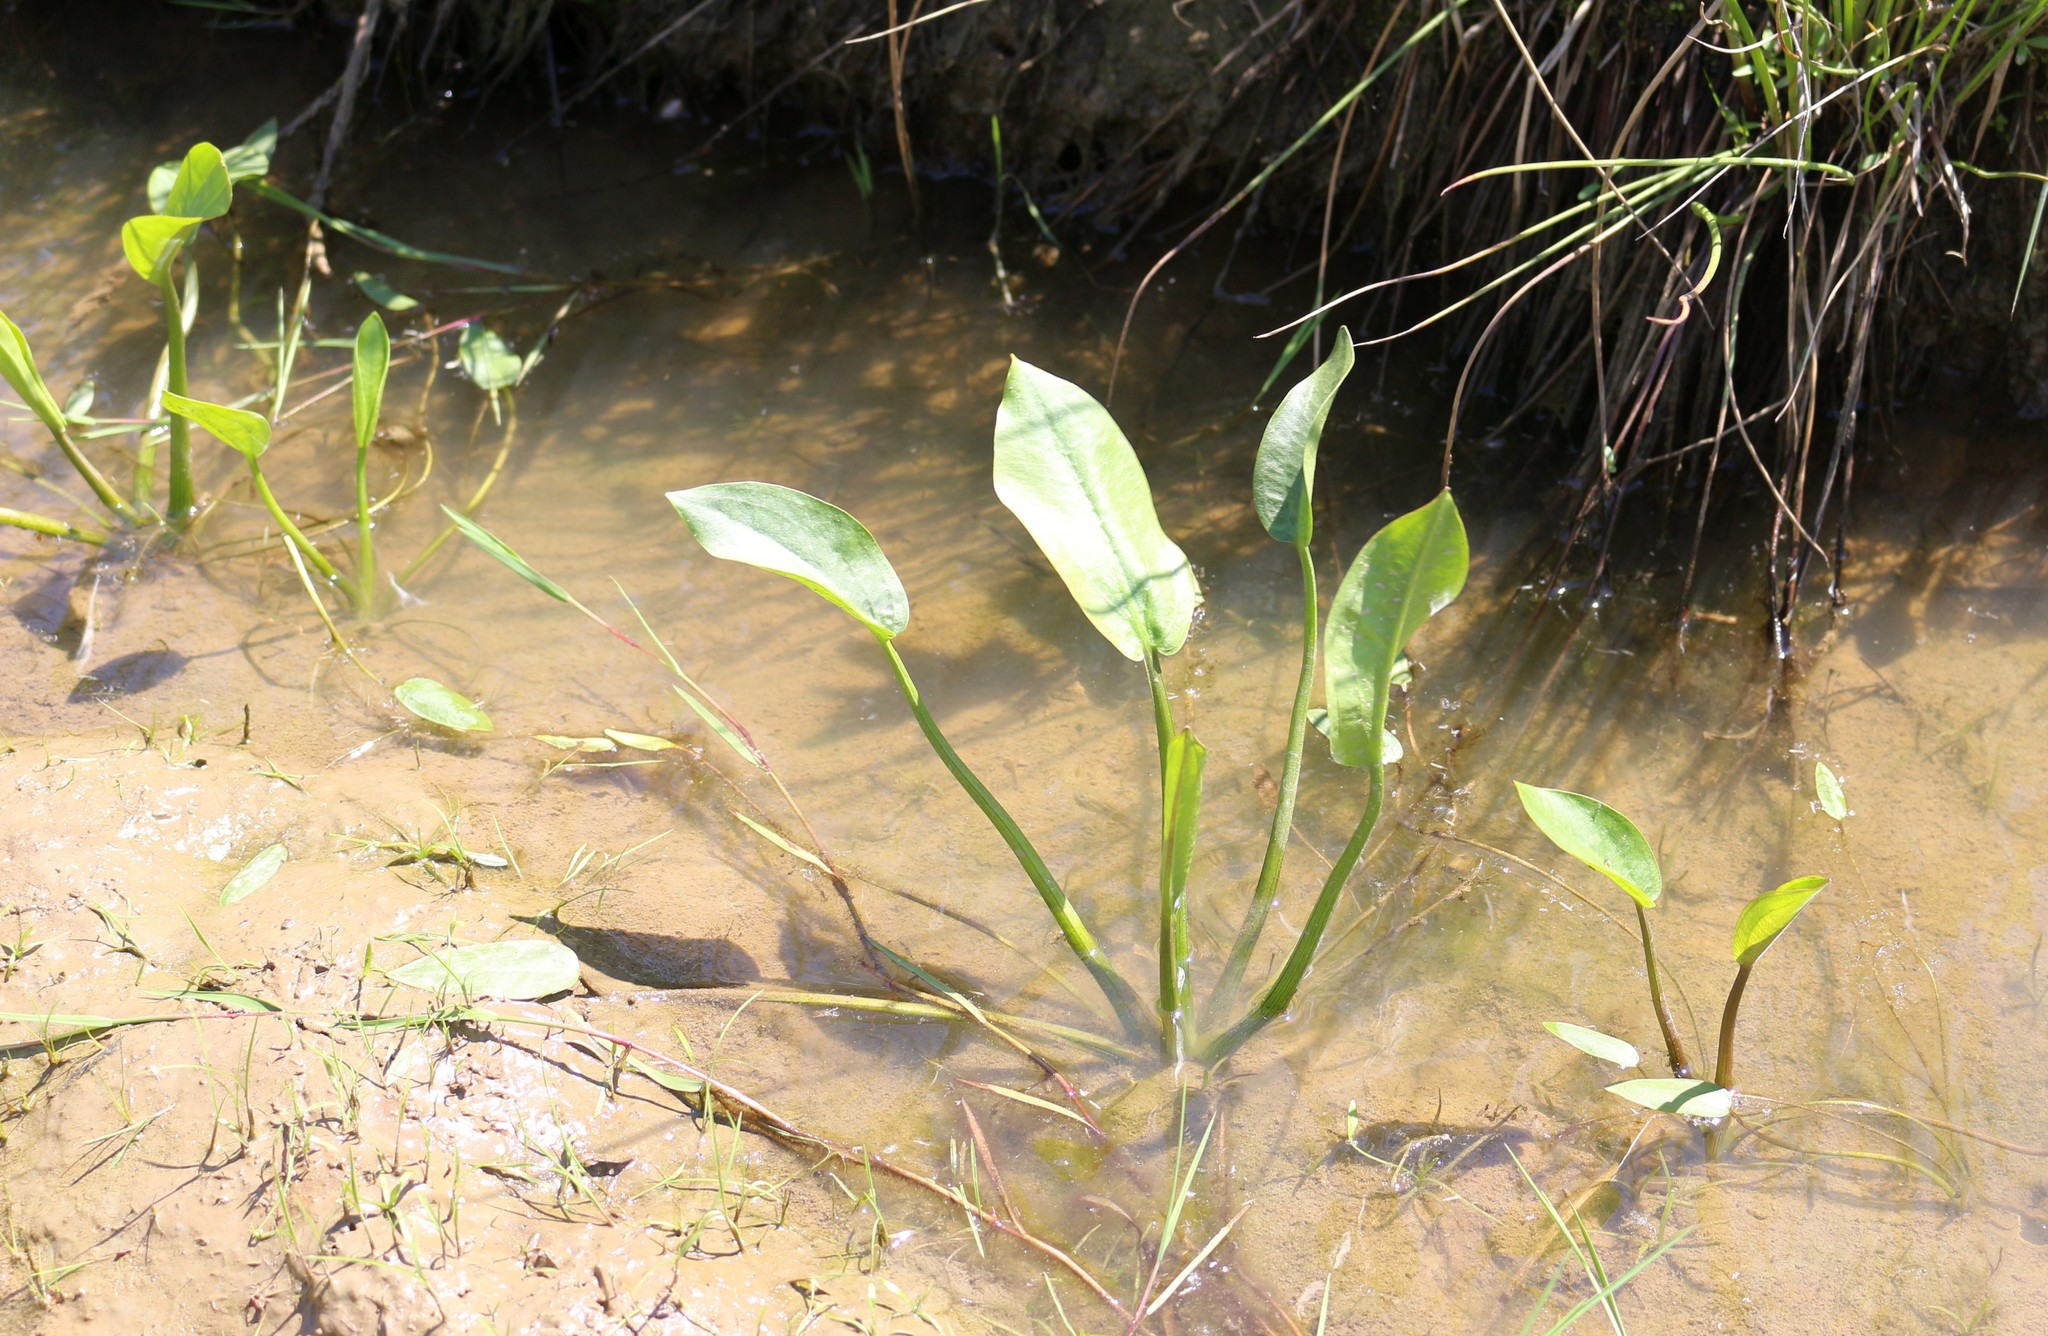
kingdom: Plantae
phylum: Tracheophyta
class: Liliopsida
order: Alismatales
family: Alismataceae
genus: Alisma
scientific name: Alisma plantago-aquatica
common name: Water-plantain
